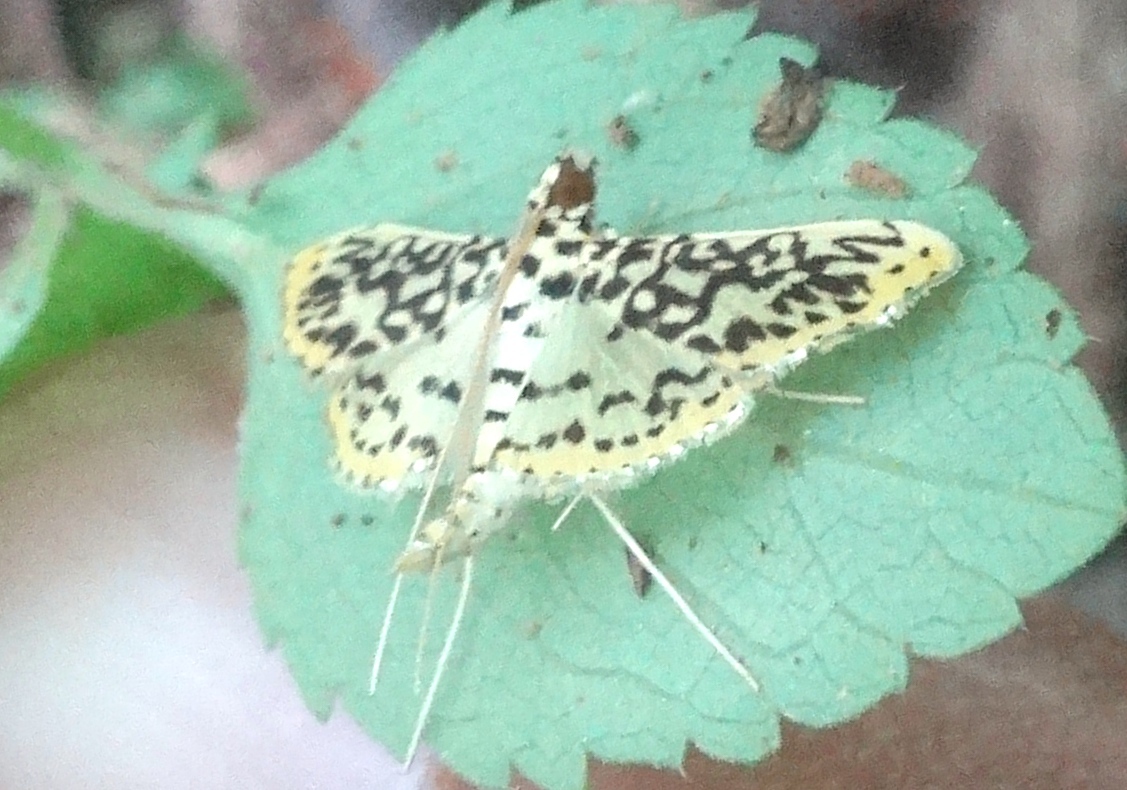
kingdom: Animalia
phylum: Arthropoda
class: Insecta
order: Lepidoptera
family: Crambidae
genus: Asturodes
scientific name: Asturodes fimbriauralis
